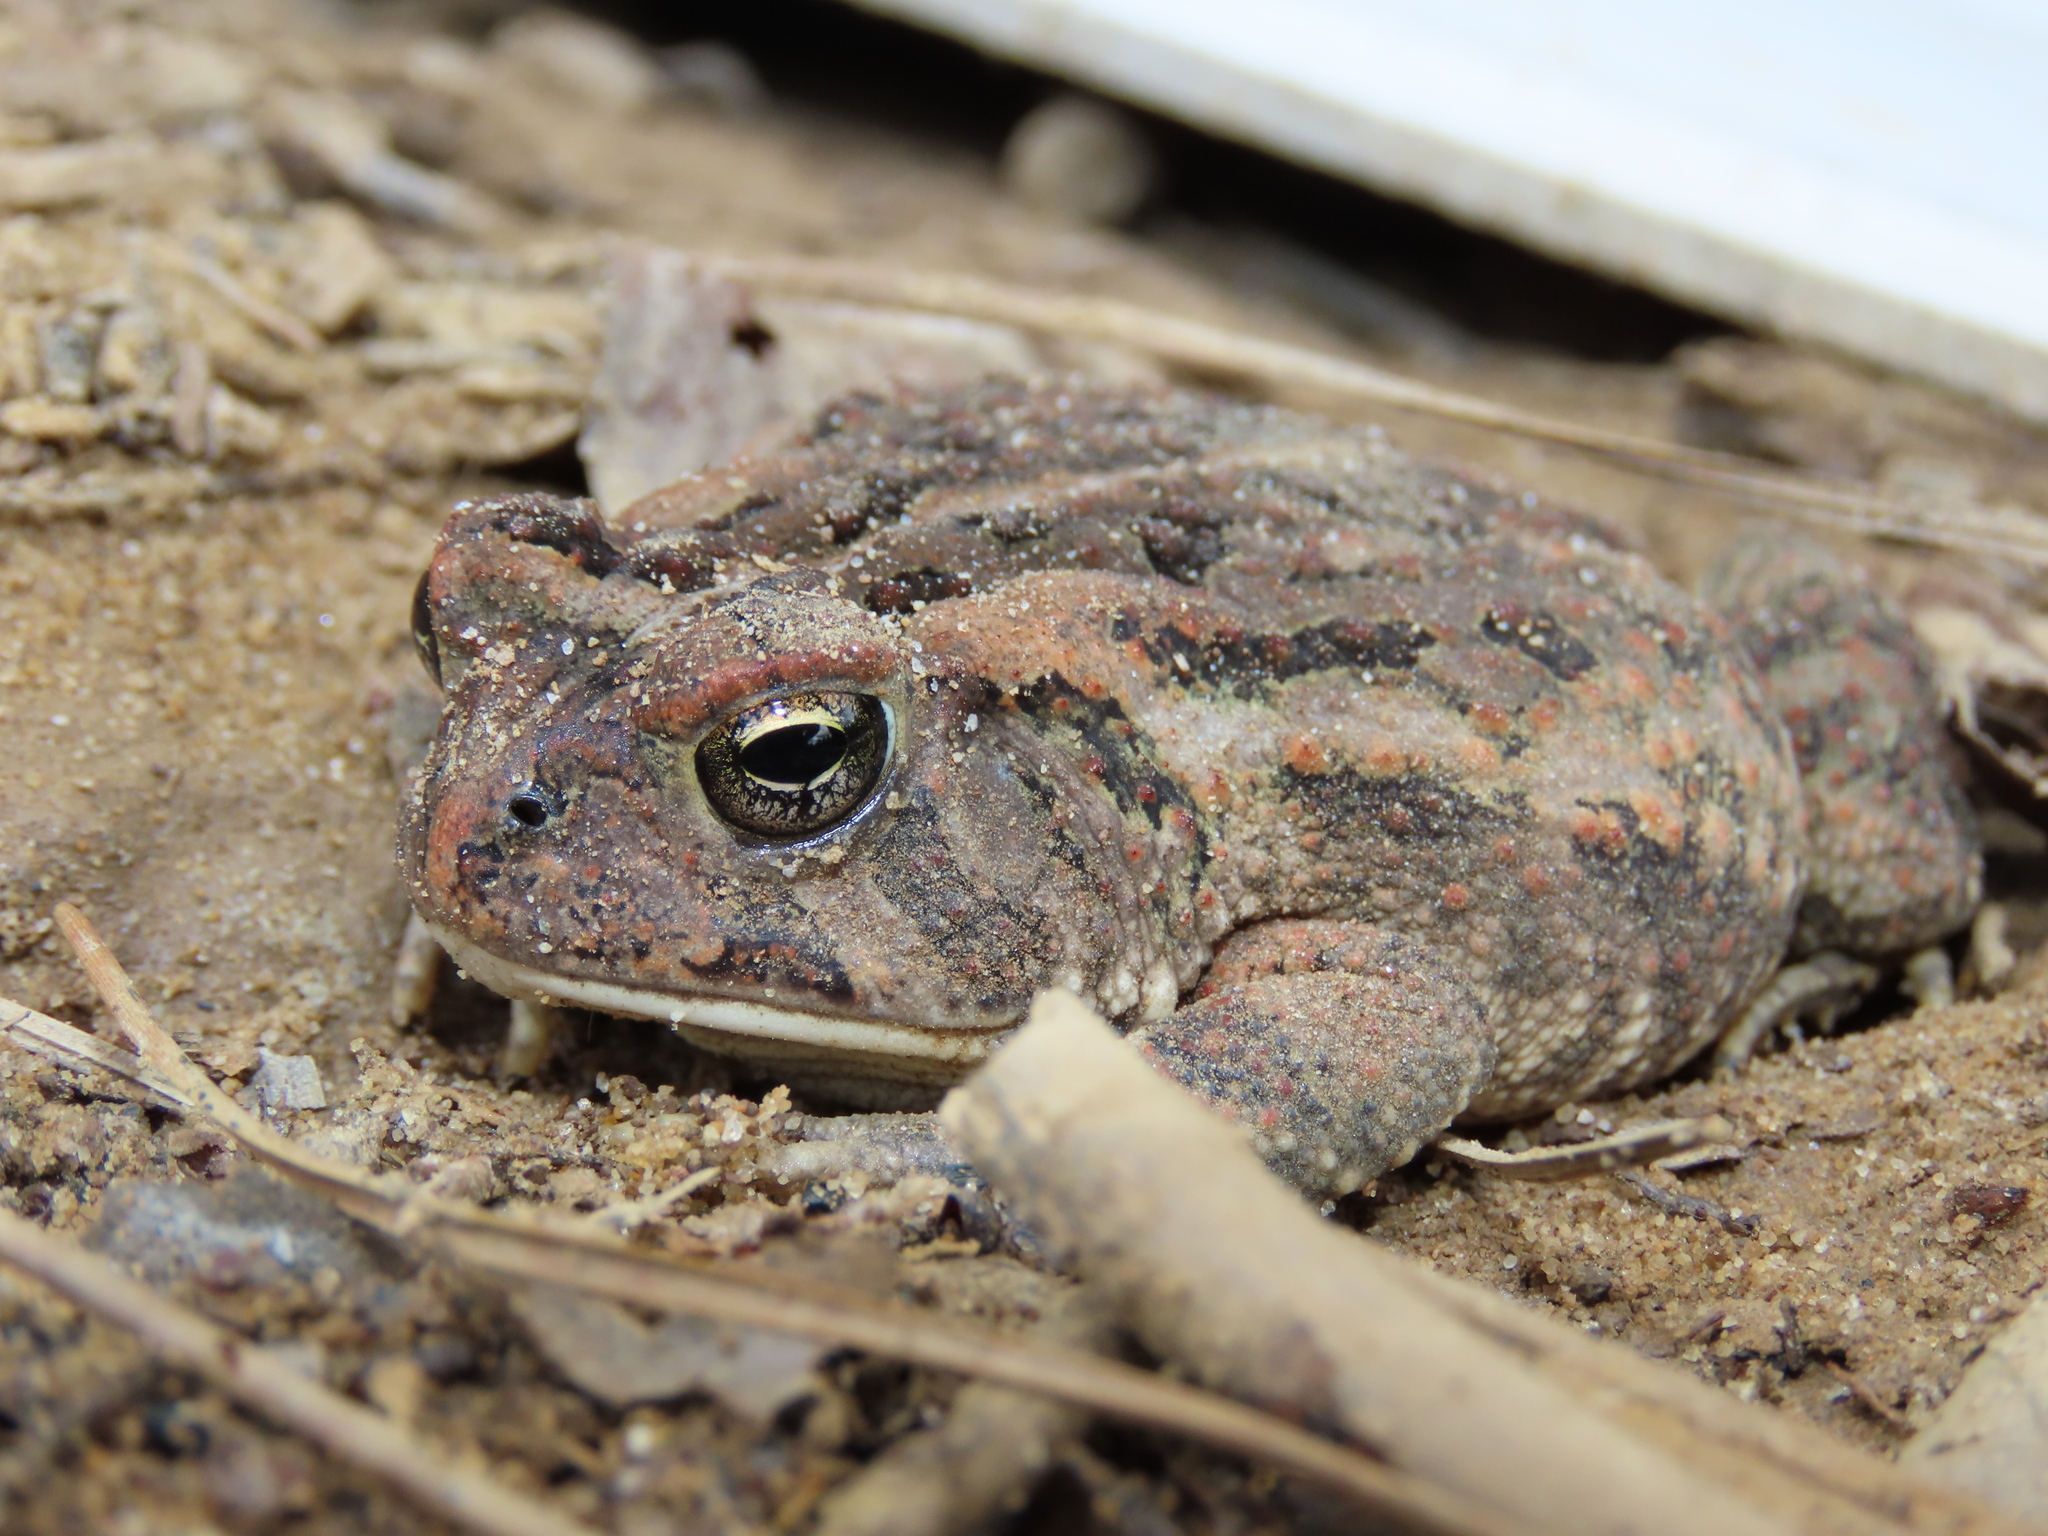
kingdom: Animalia
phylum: Chordata
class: Amphibia
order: Anura
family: Bufonidae
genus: Anaxyrus
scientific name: Anaxyrus fowleri
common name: Fowler's toad
